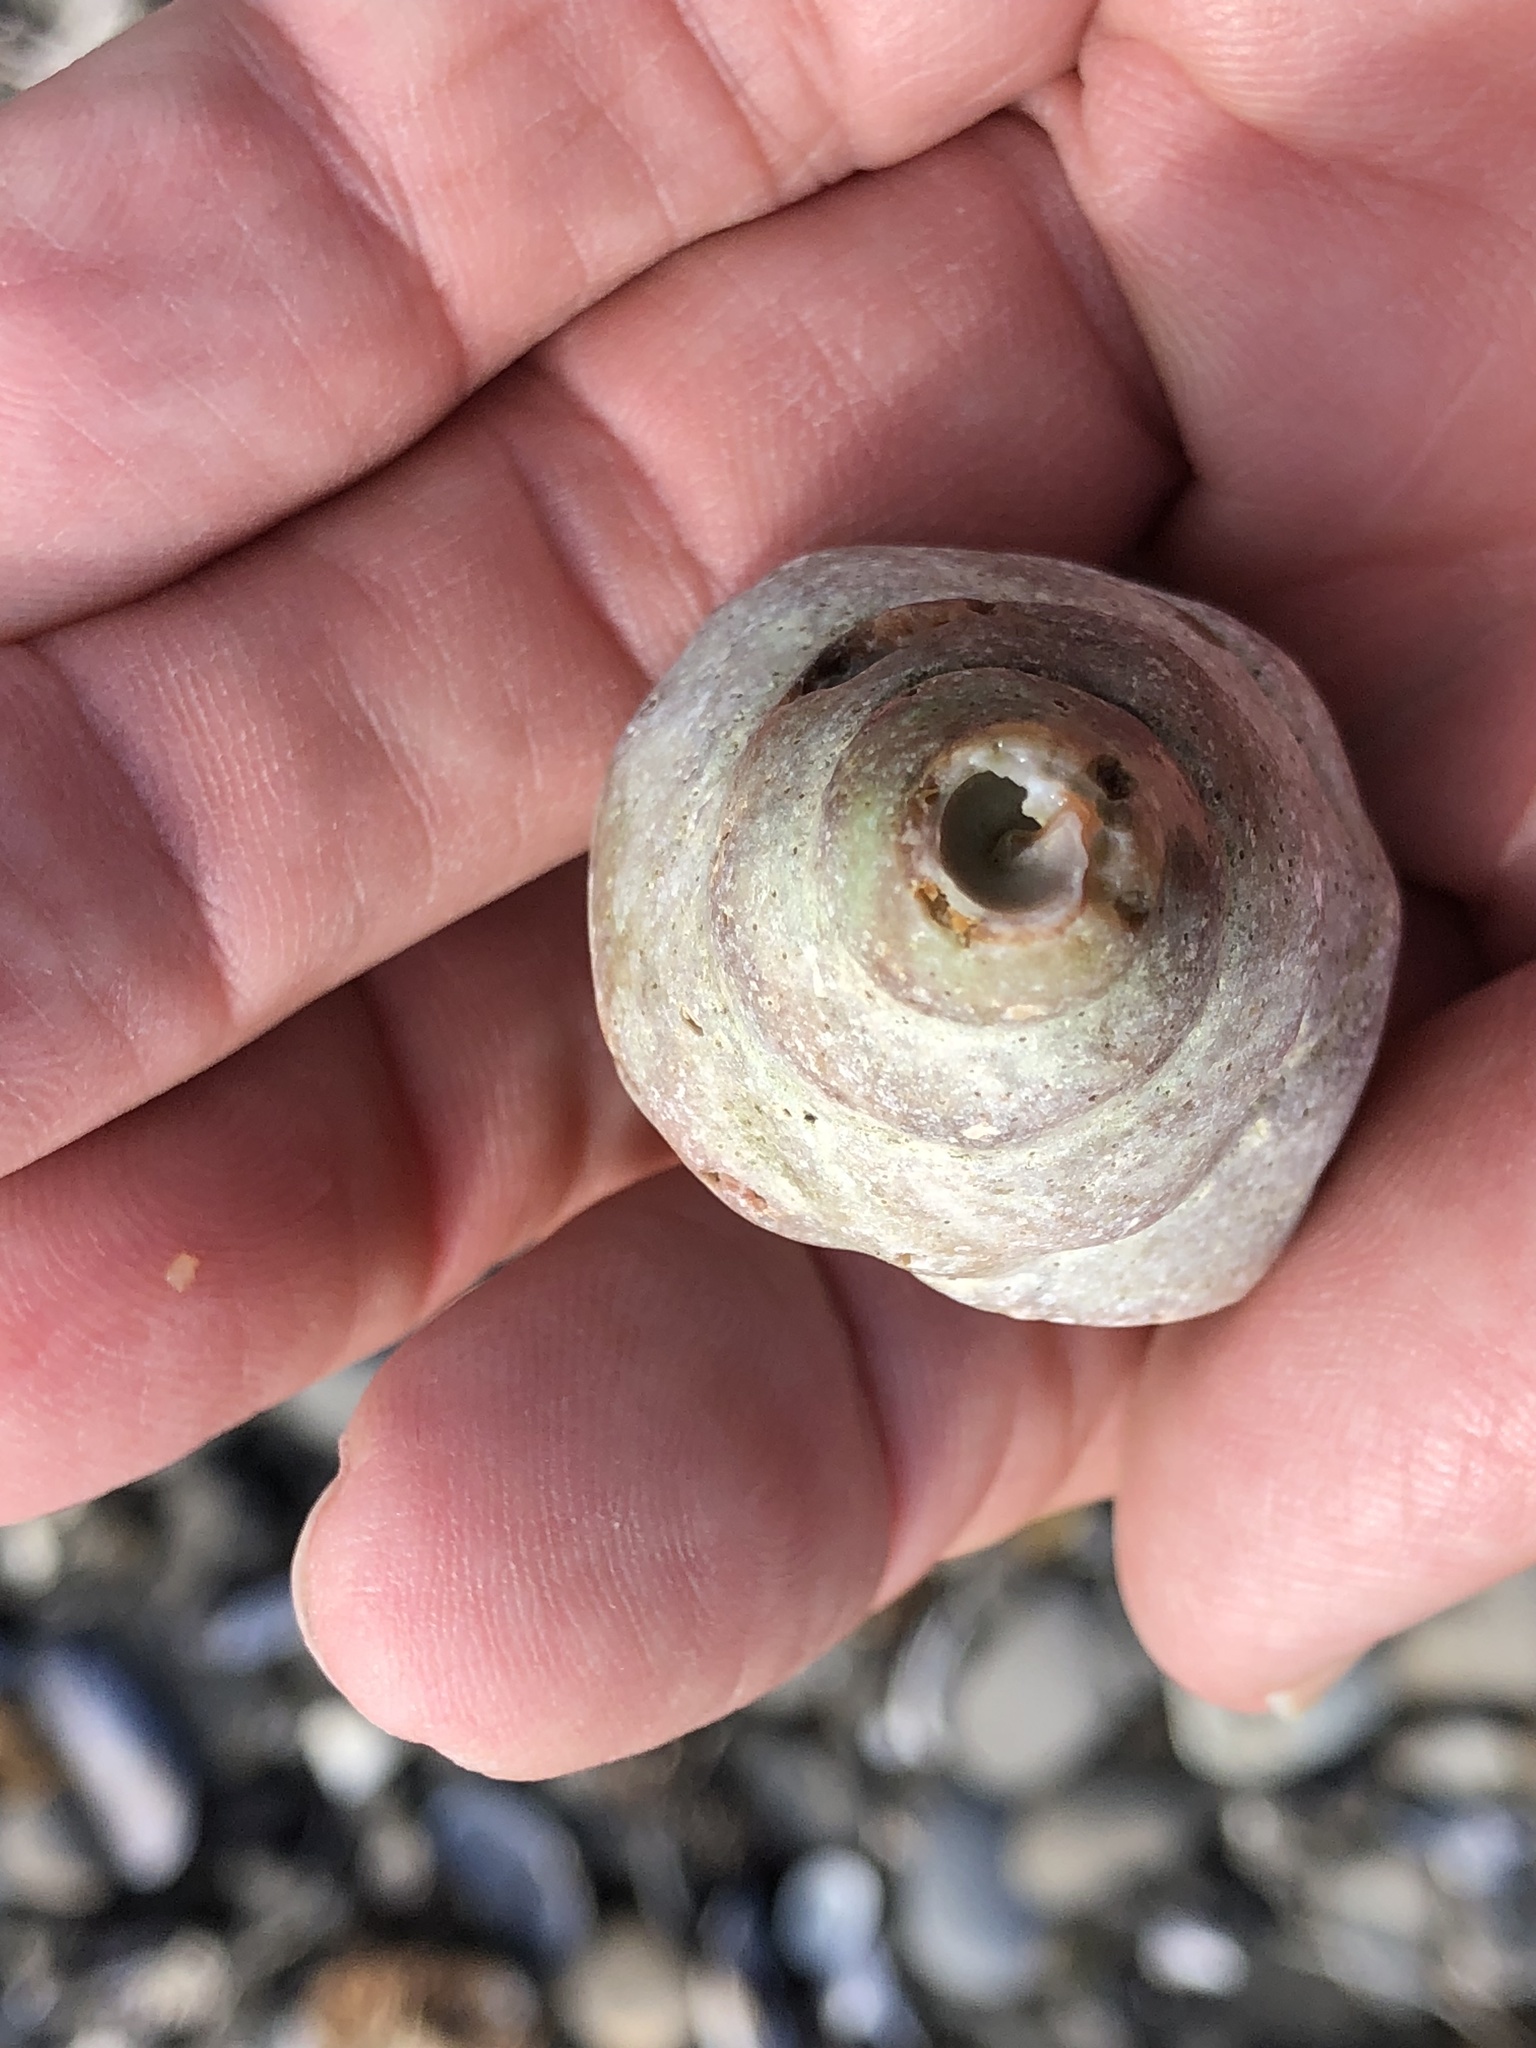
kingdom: Animalia
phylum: Mollusca
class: Gastropoda
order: Neogastropoda
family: Muricidae
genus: Nucella
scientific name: Nucella lamellosa
